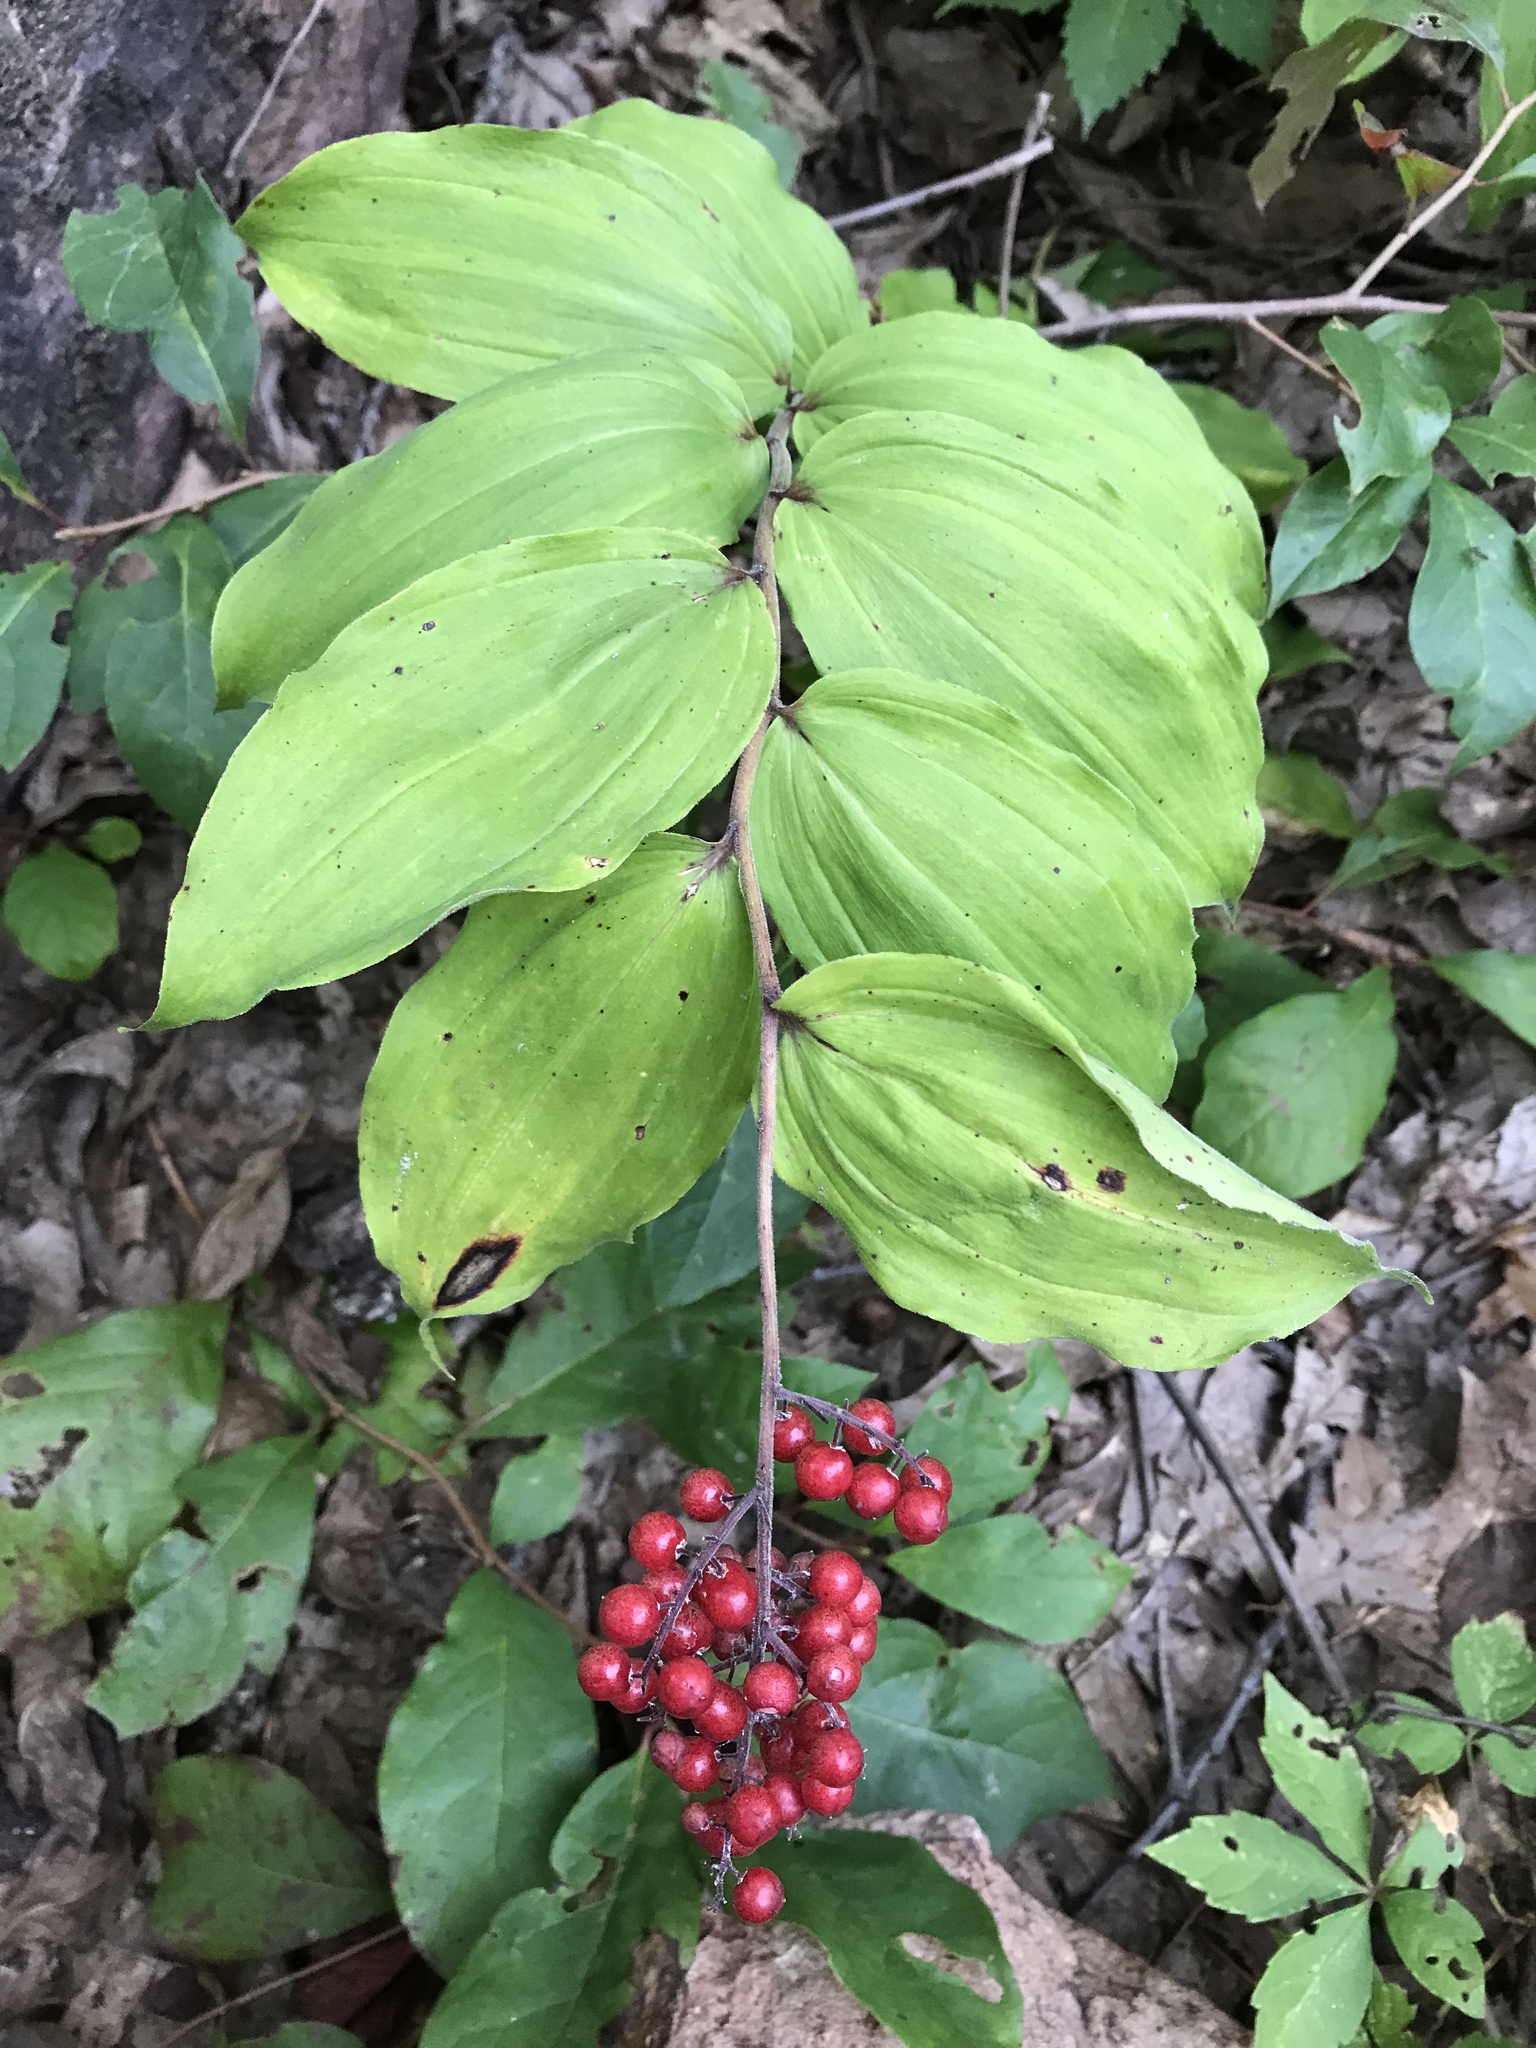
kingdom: Plantae
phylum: Tracheophyta
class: Liliopsida
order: Asparagales
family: Asparagaceae
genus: Maianthemum
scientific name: Maianthemum racemosum
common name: False spikenard
